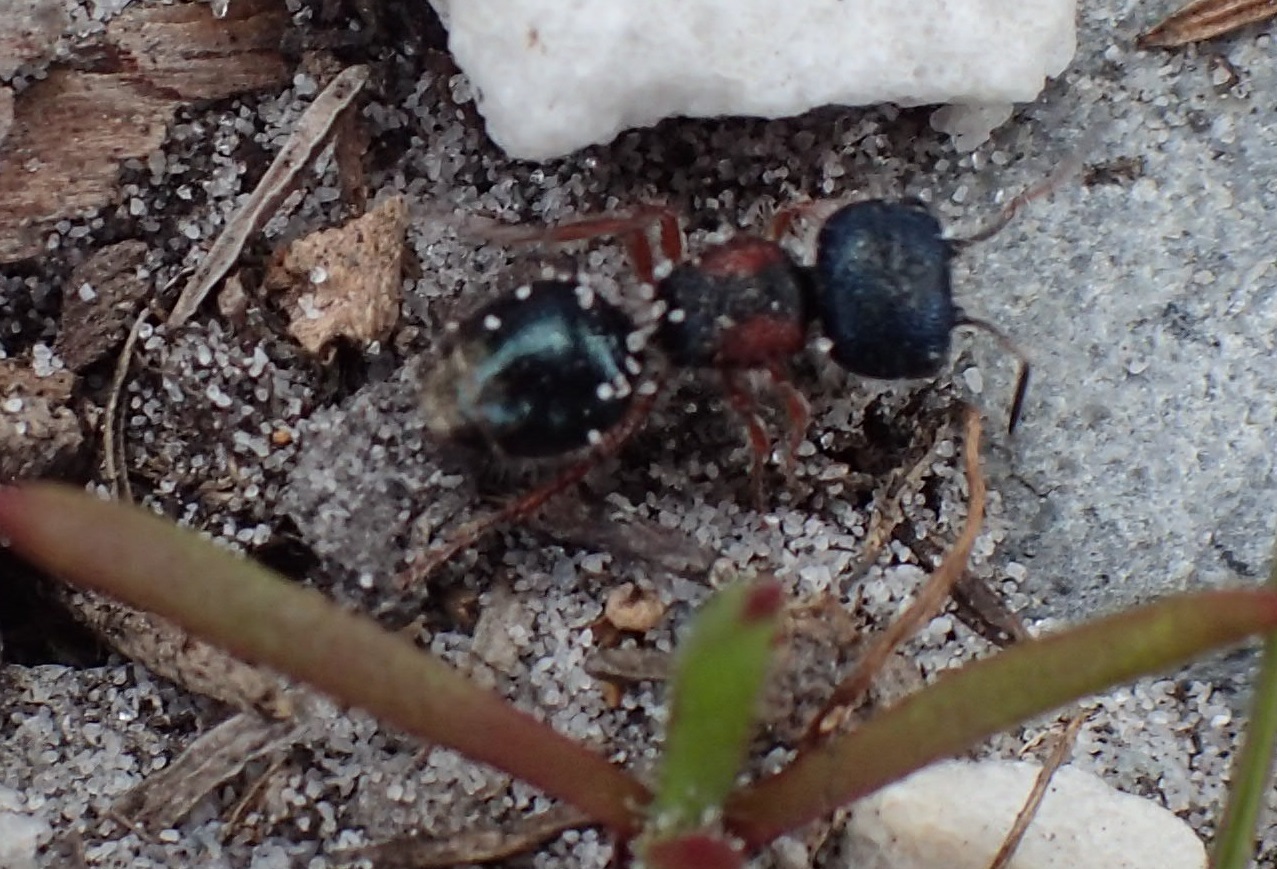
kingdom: Animalia
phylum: Arthropoda
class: Insecta
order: Hymenoptera
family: Mutillidae
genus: Ephutomorpha
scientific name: Ephutomorpha
